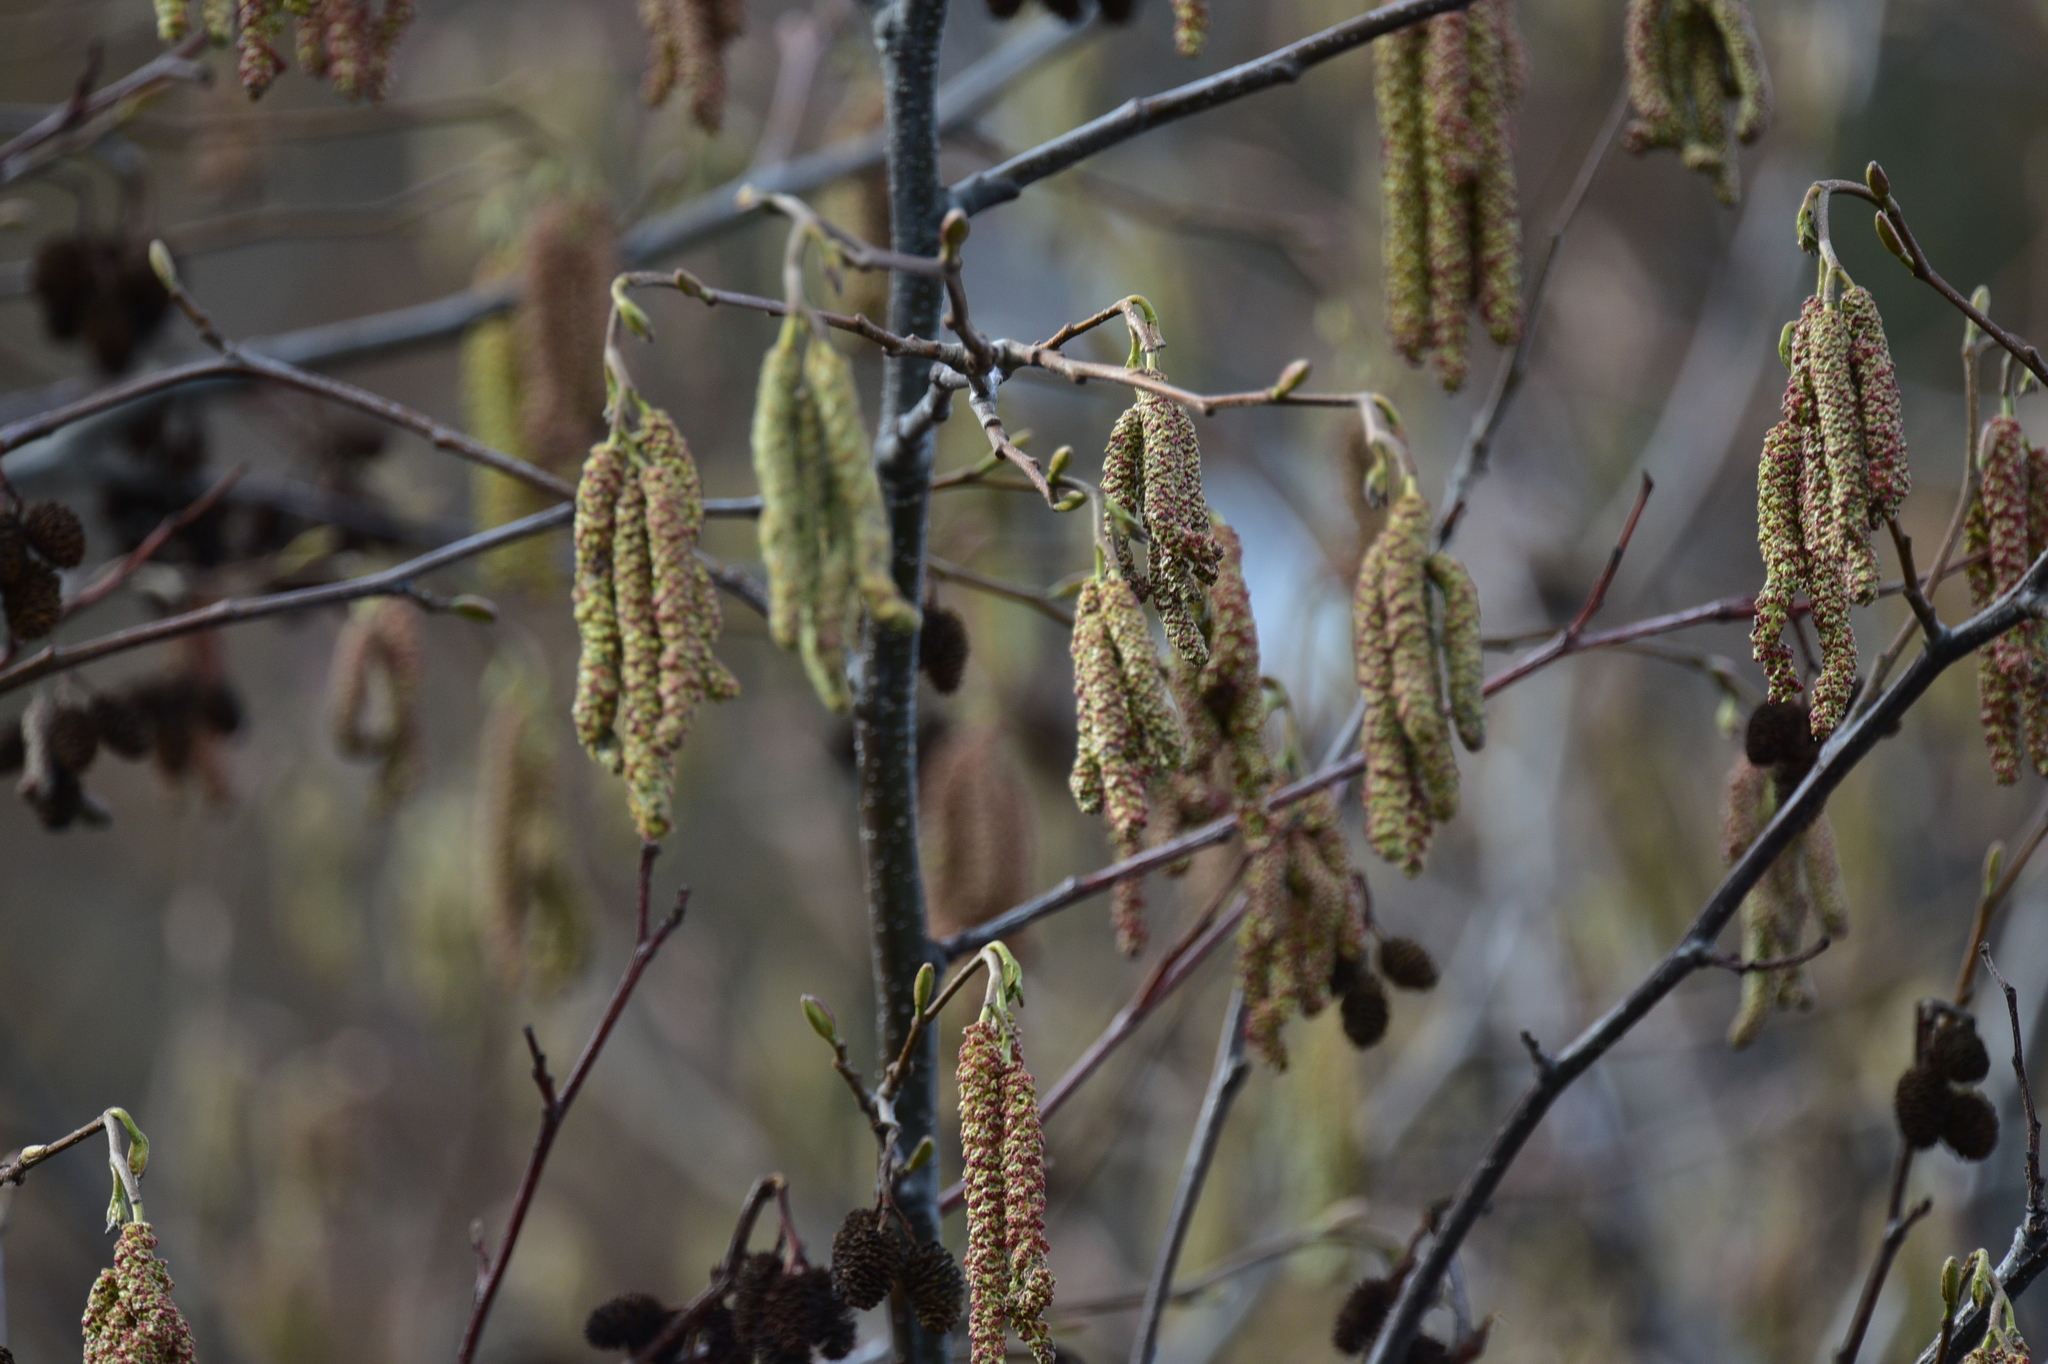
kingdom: Plantae
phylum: Tracheophyta
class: Magnoliopsida
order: Fagales
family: Betulaceae
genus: Alnus
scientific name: Alnus rubra
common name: Red alder
